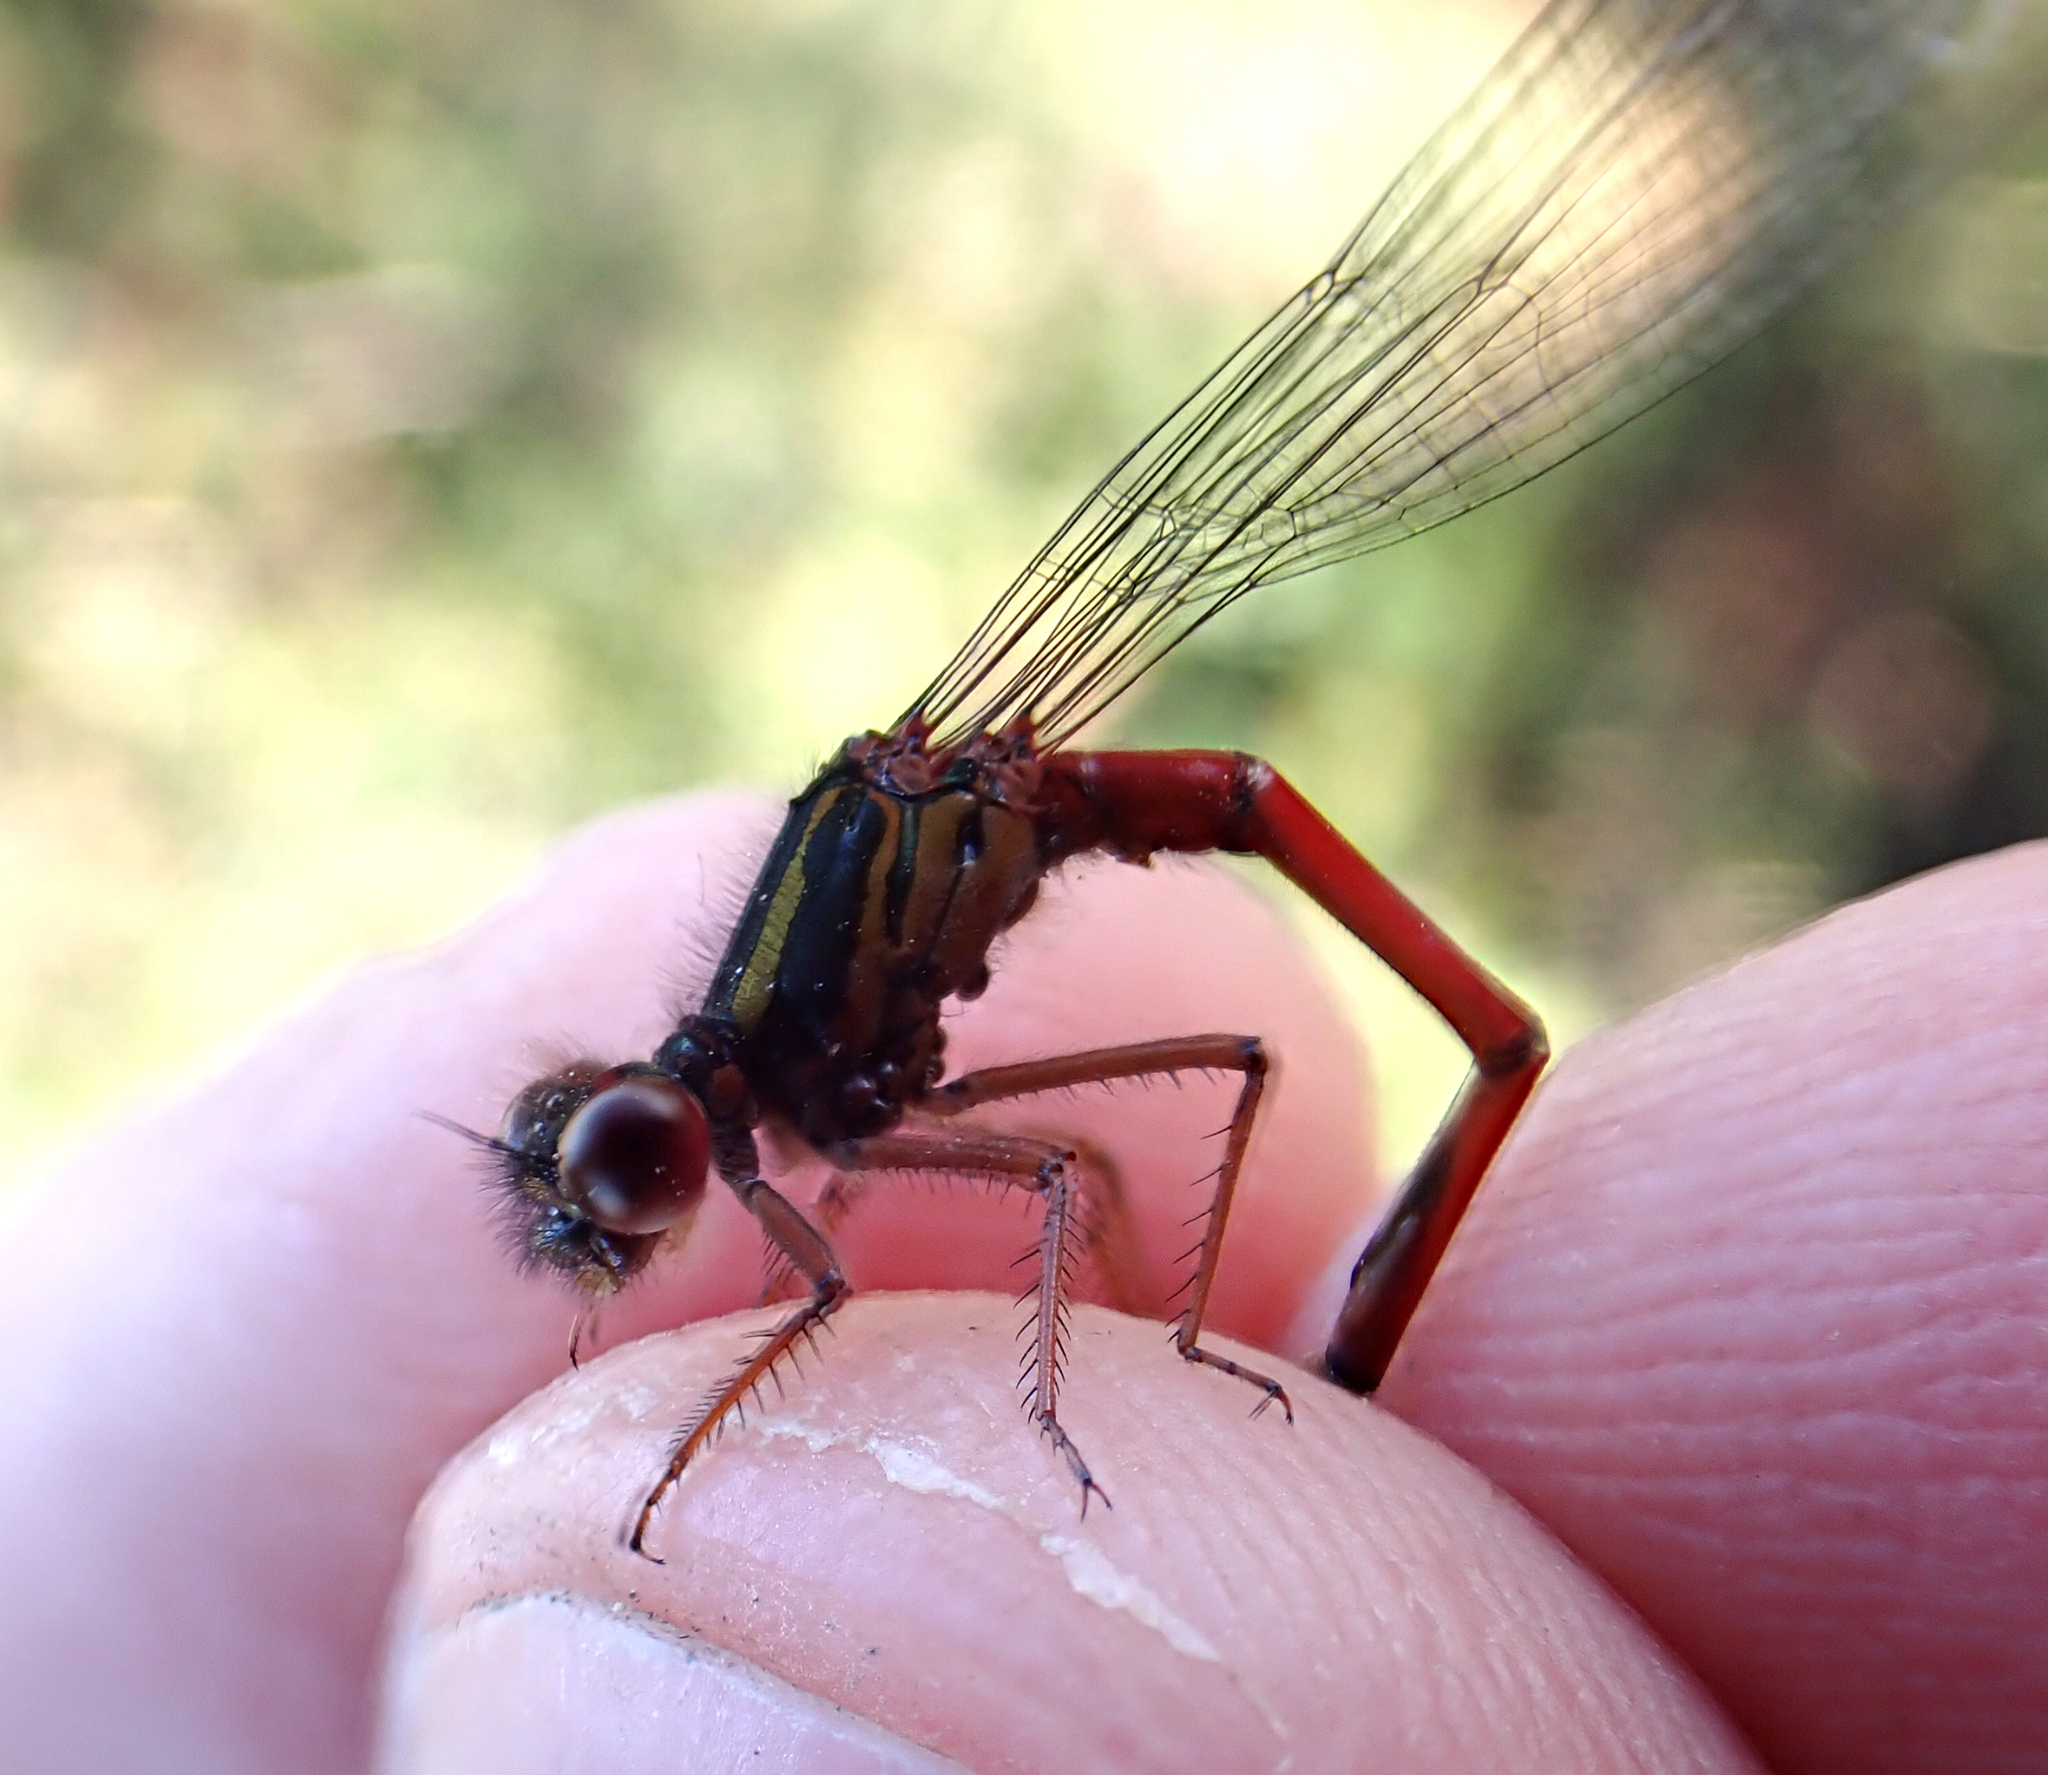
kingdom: Animalia
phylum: Arthropoda
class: Insecta
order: Odonata
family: Coenagrionidae
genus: Xanthocnemis
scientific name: Xanthocnemis tuanuii
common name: Chatham redcoat damselfly
